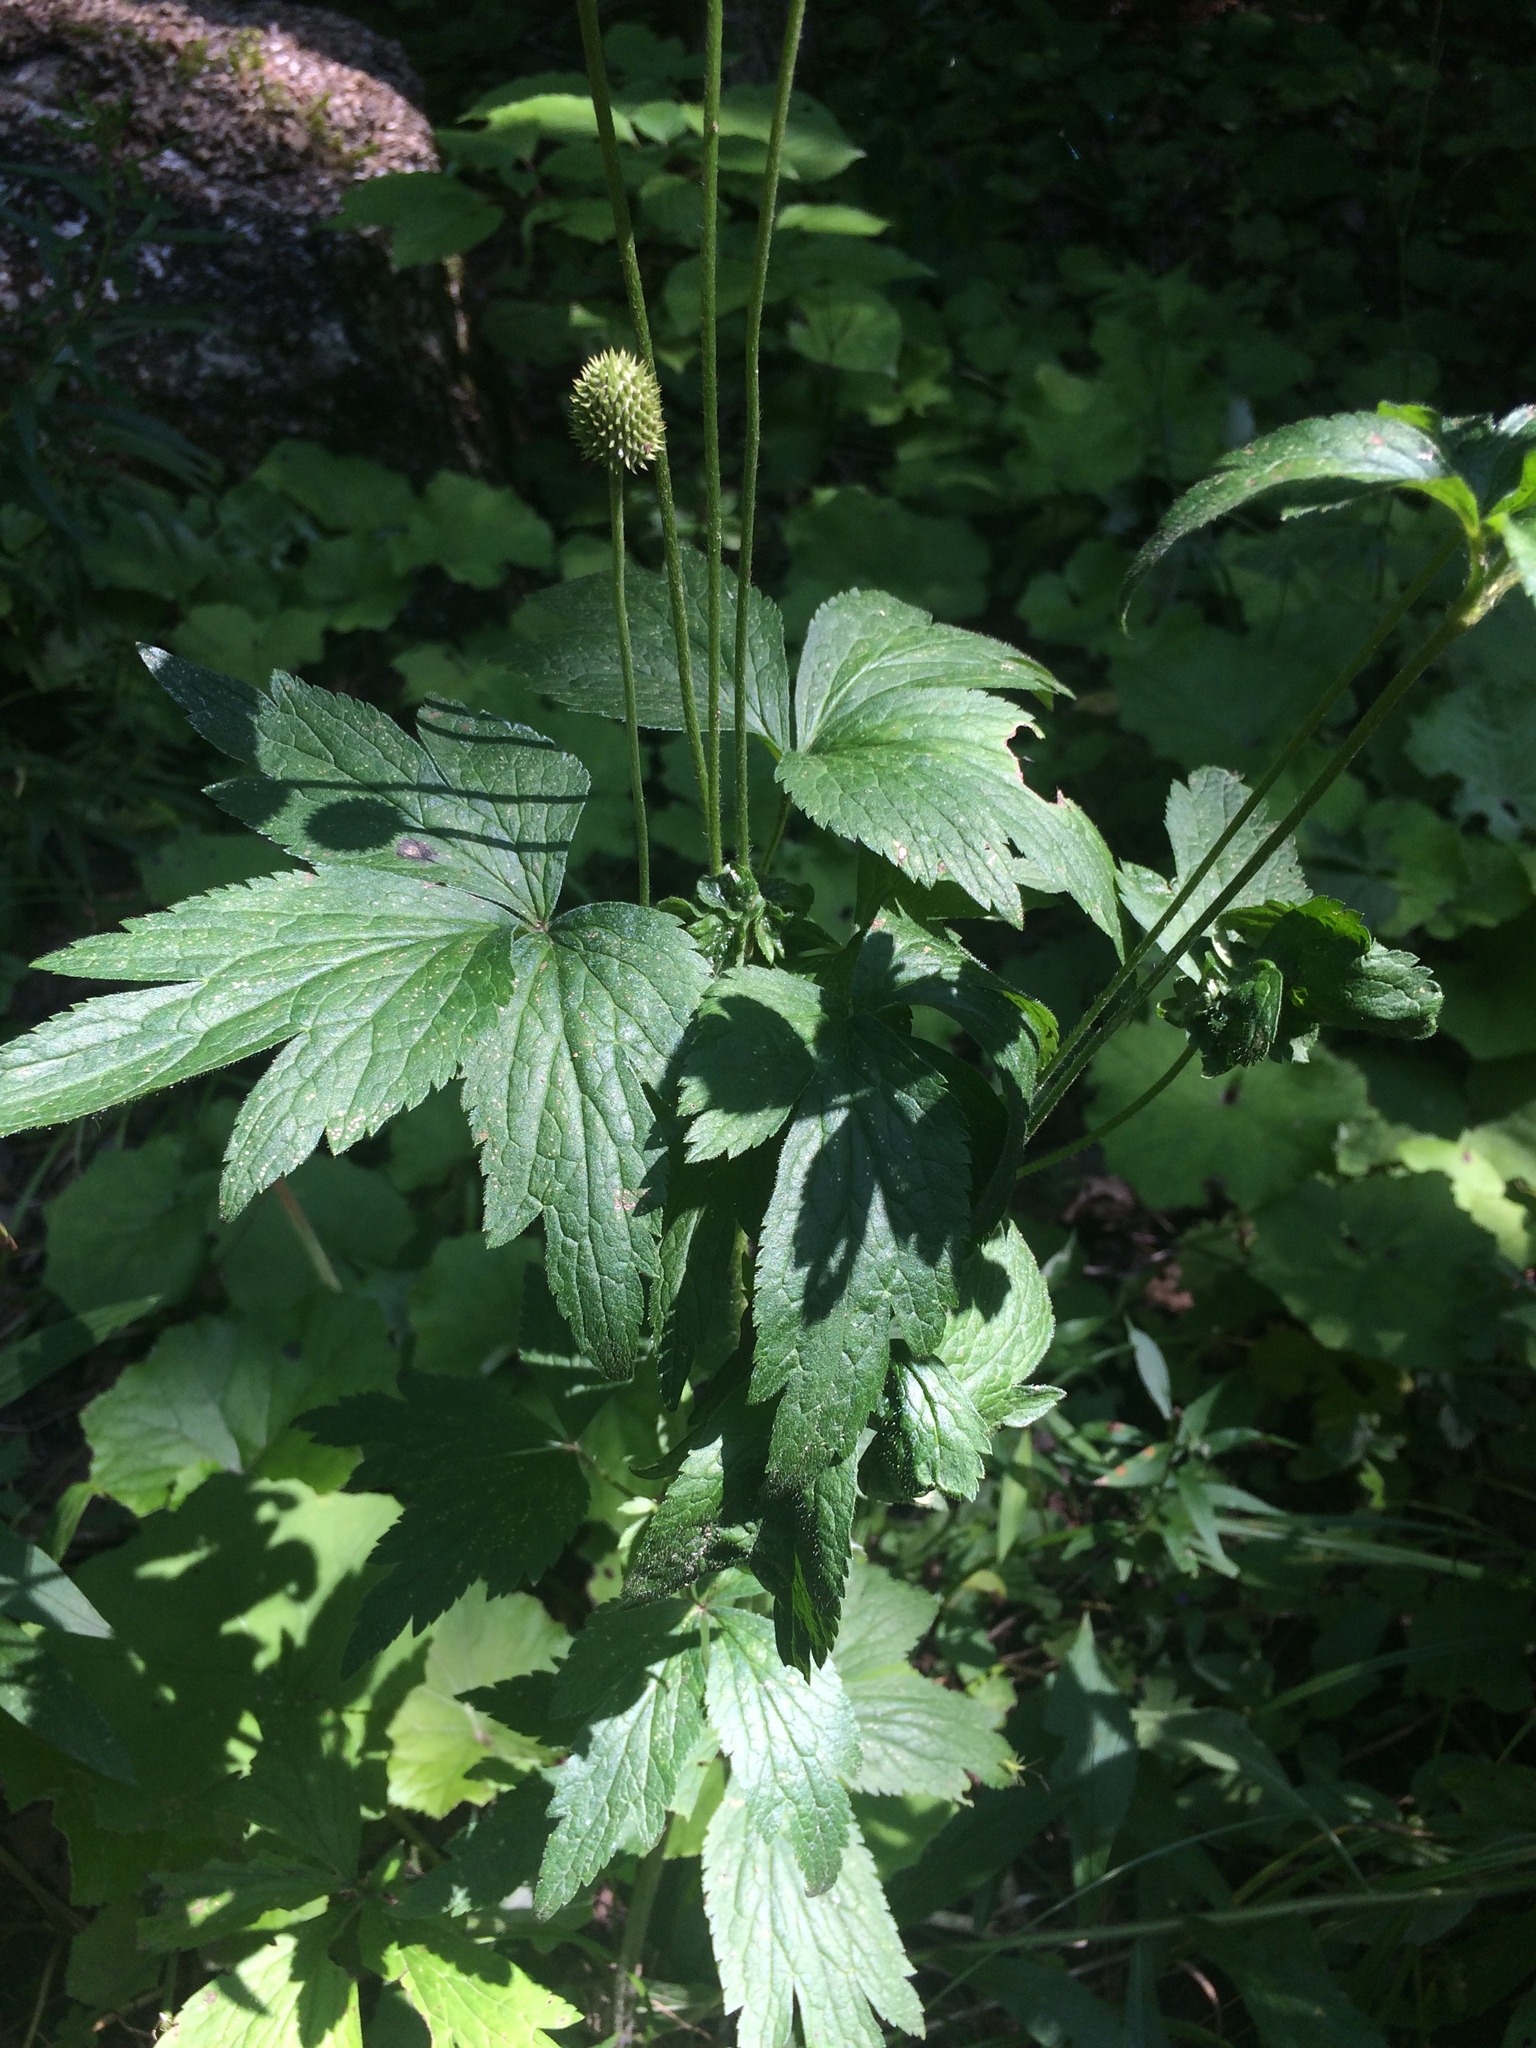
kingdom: Plantae
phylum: Tracheophyta
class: Magnoliopsida
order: Ranunculales
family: Ranunculaceae
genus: Anemone
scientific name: Anemone virginiana
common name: Tall anemone
